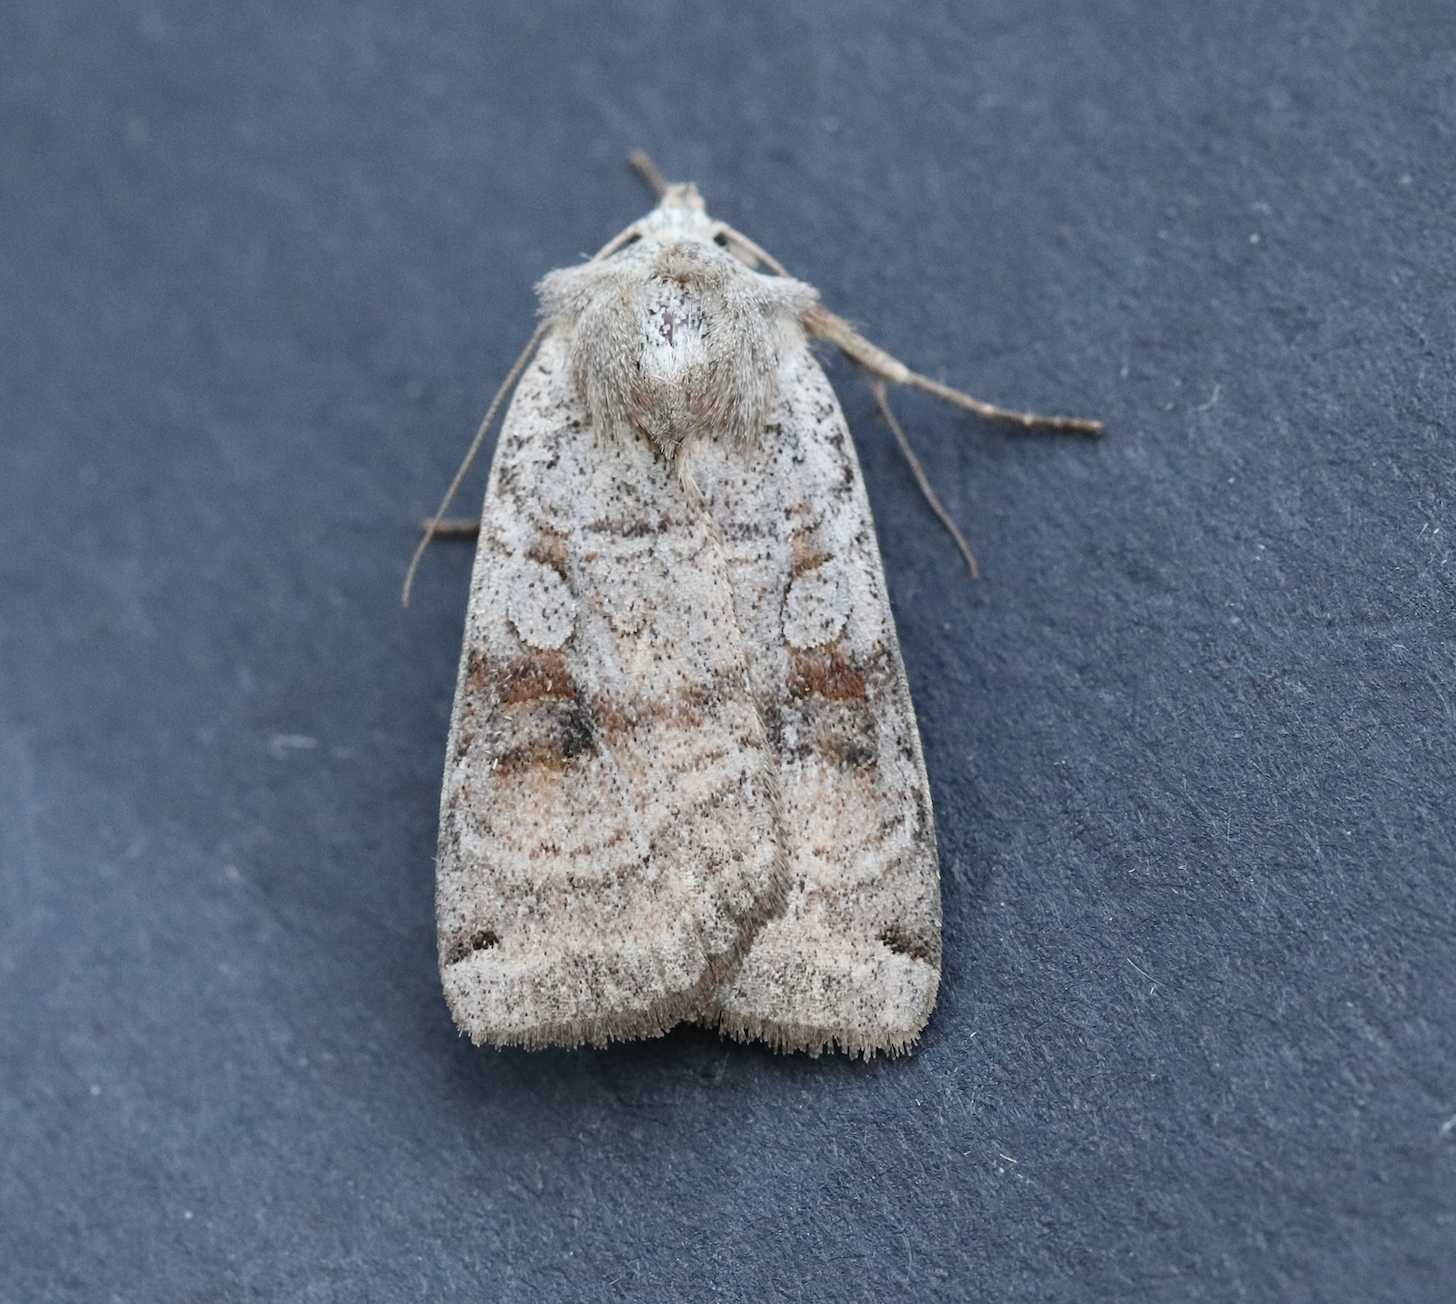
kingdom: Animalia
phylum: Arthropoda
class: Insecta
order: Lepidoptera
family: Noctuidae
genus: Xestia
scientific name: Xestia smithii
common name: Smith's dart
